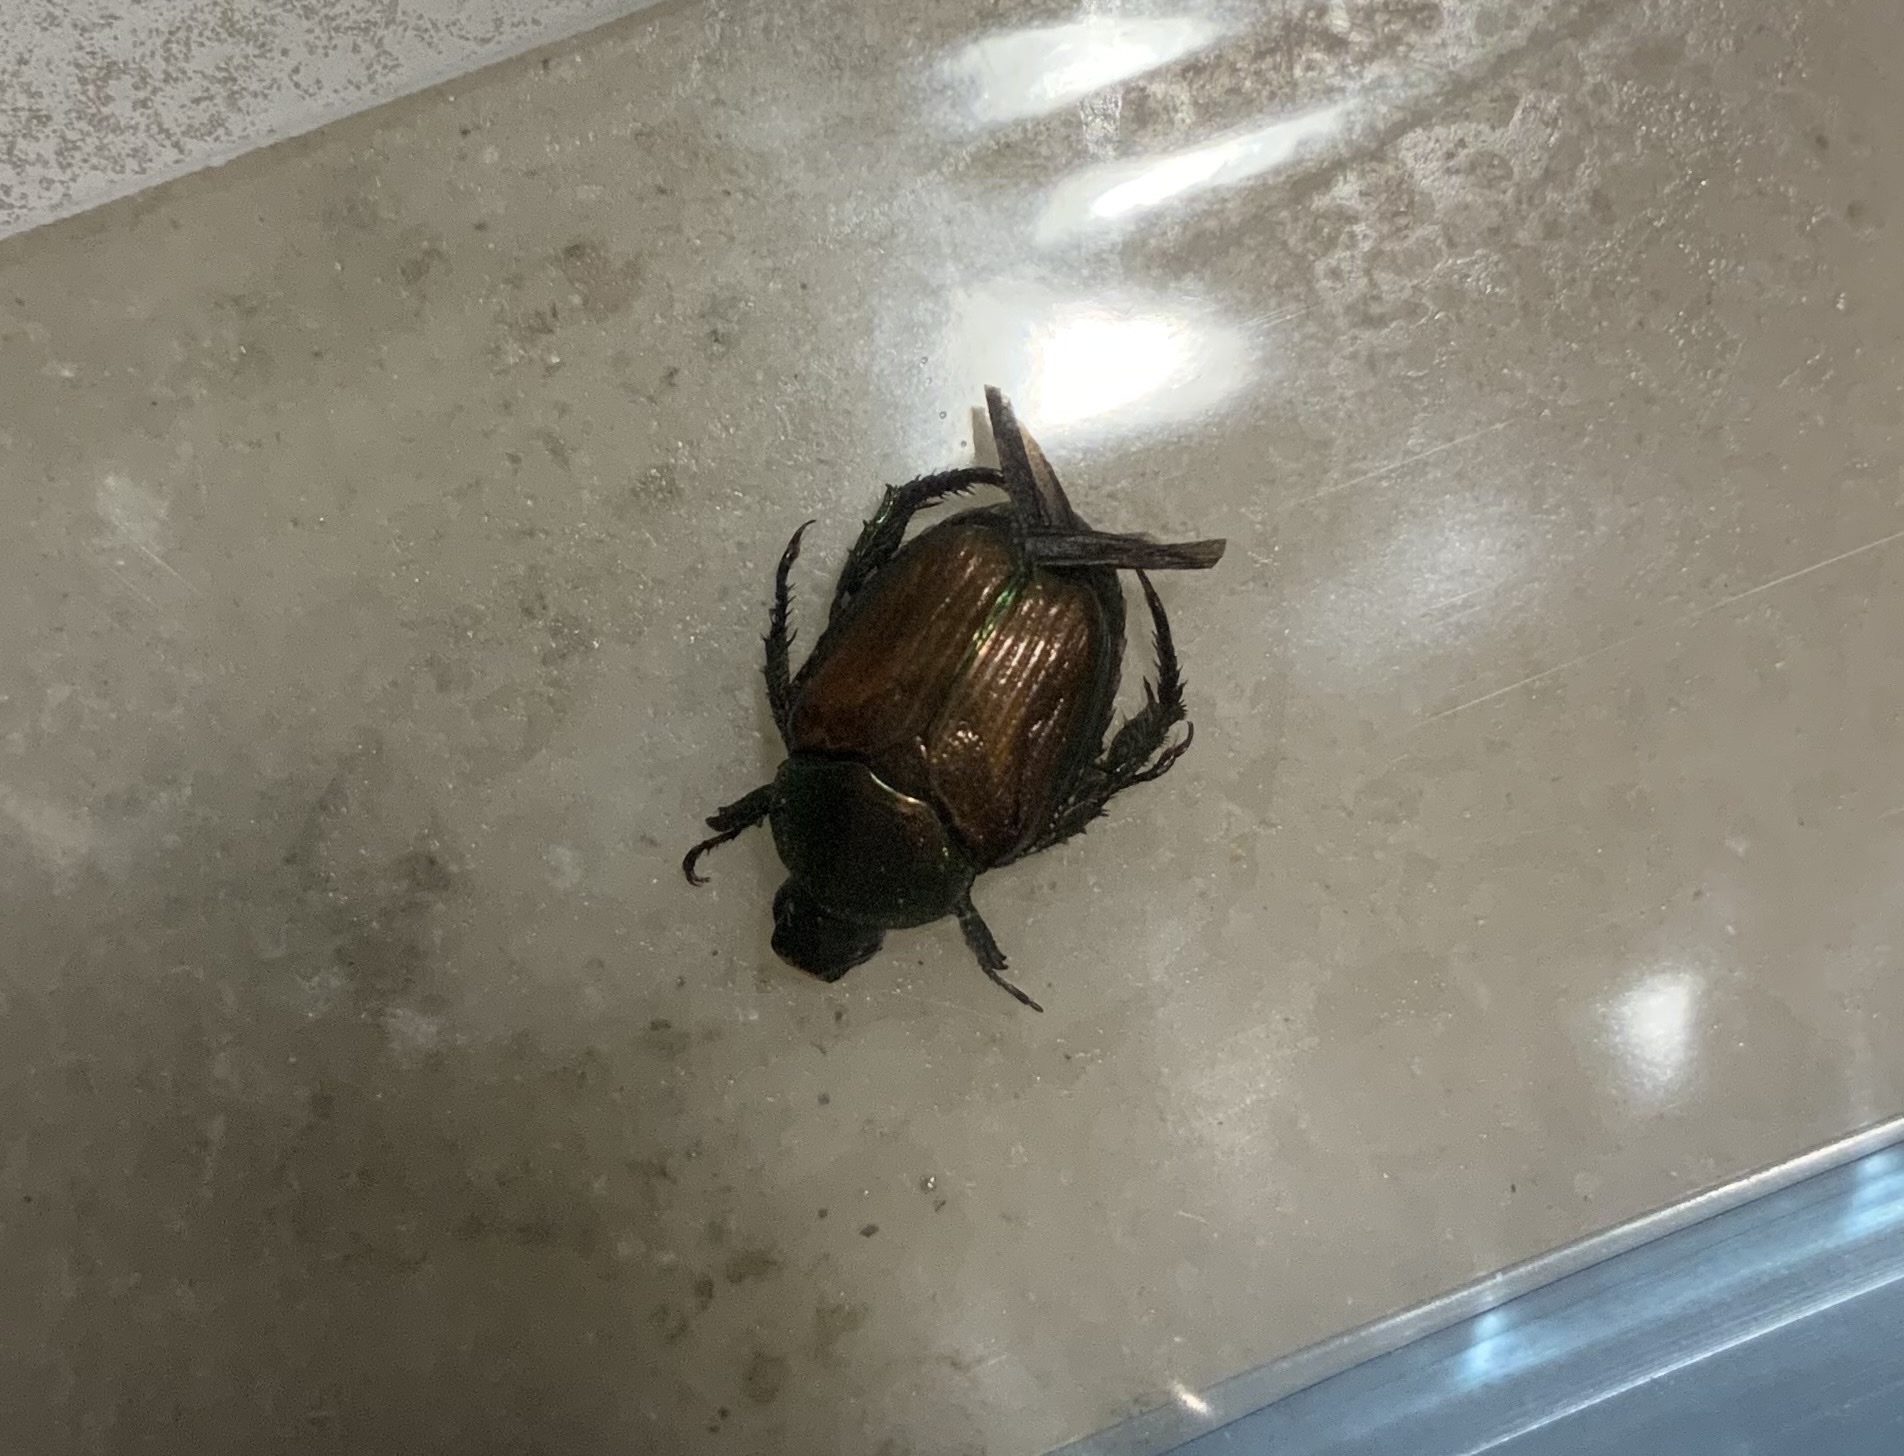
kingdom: Animalia
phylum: Arthropoda
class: Insecta
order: Coleoptera
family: Scarabaeidae
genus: Popillia
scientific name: Popillia japonica
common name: Japanese beetle
